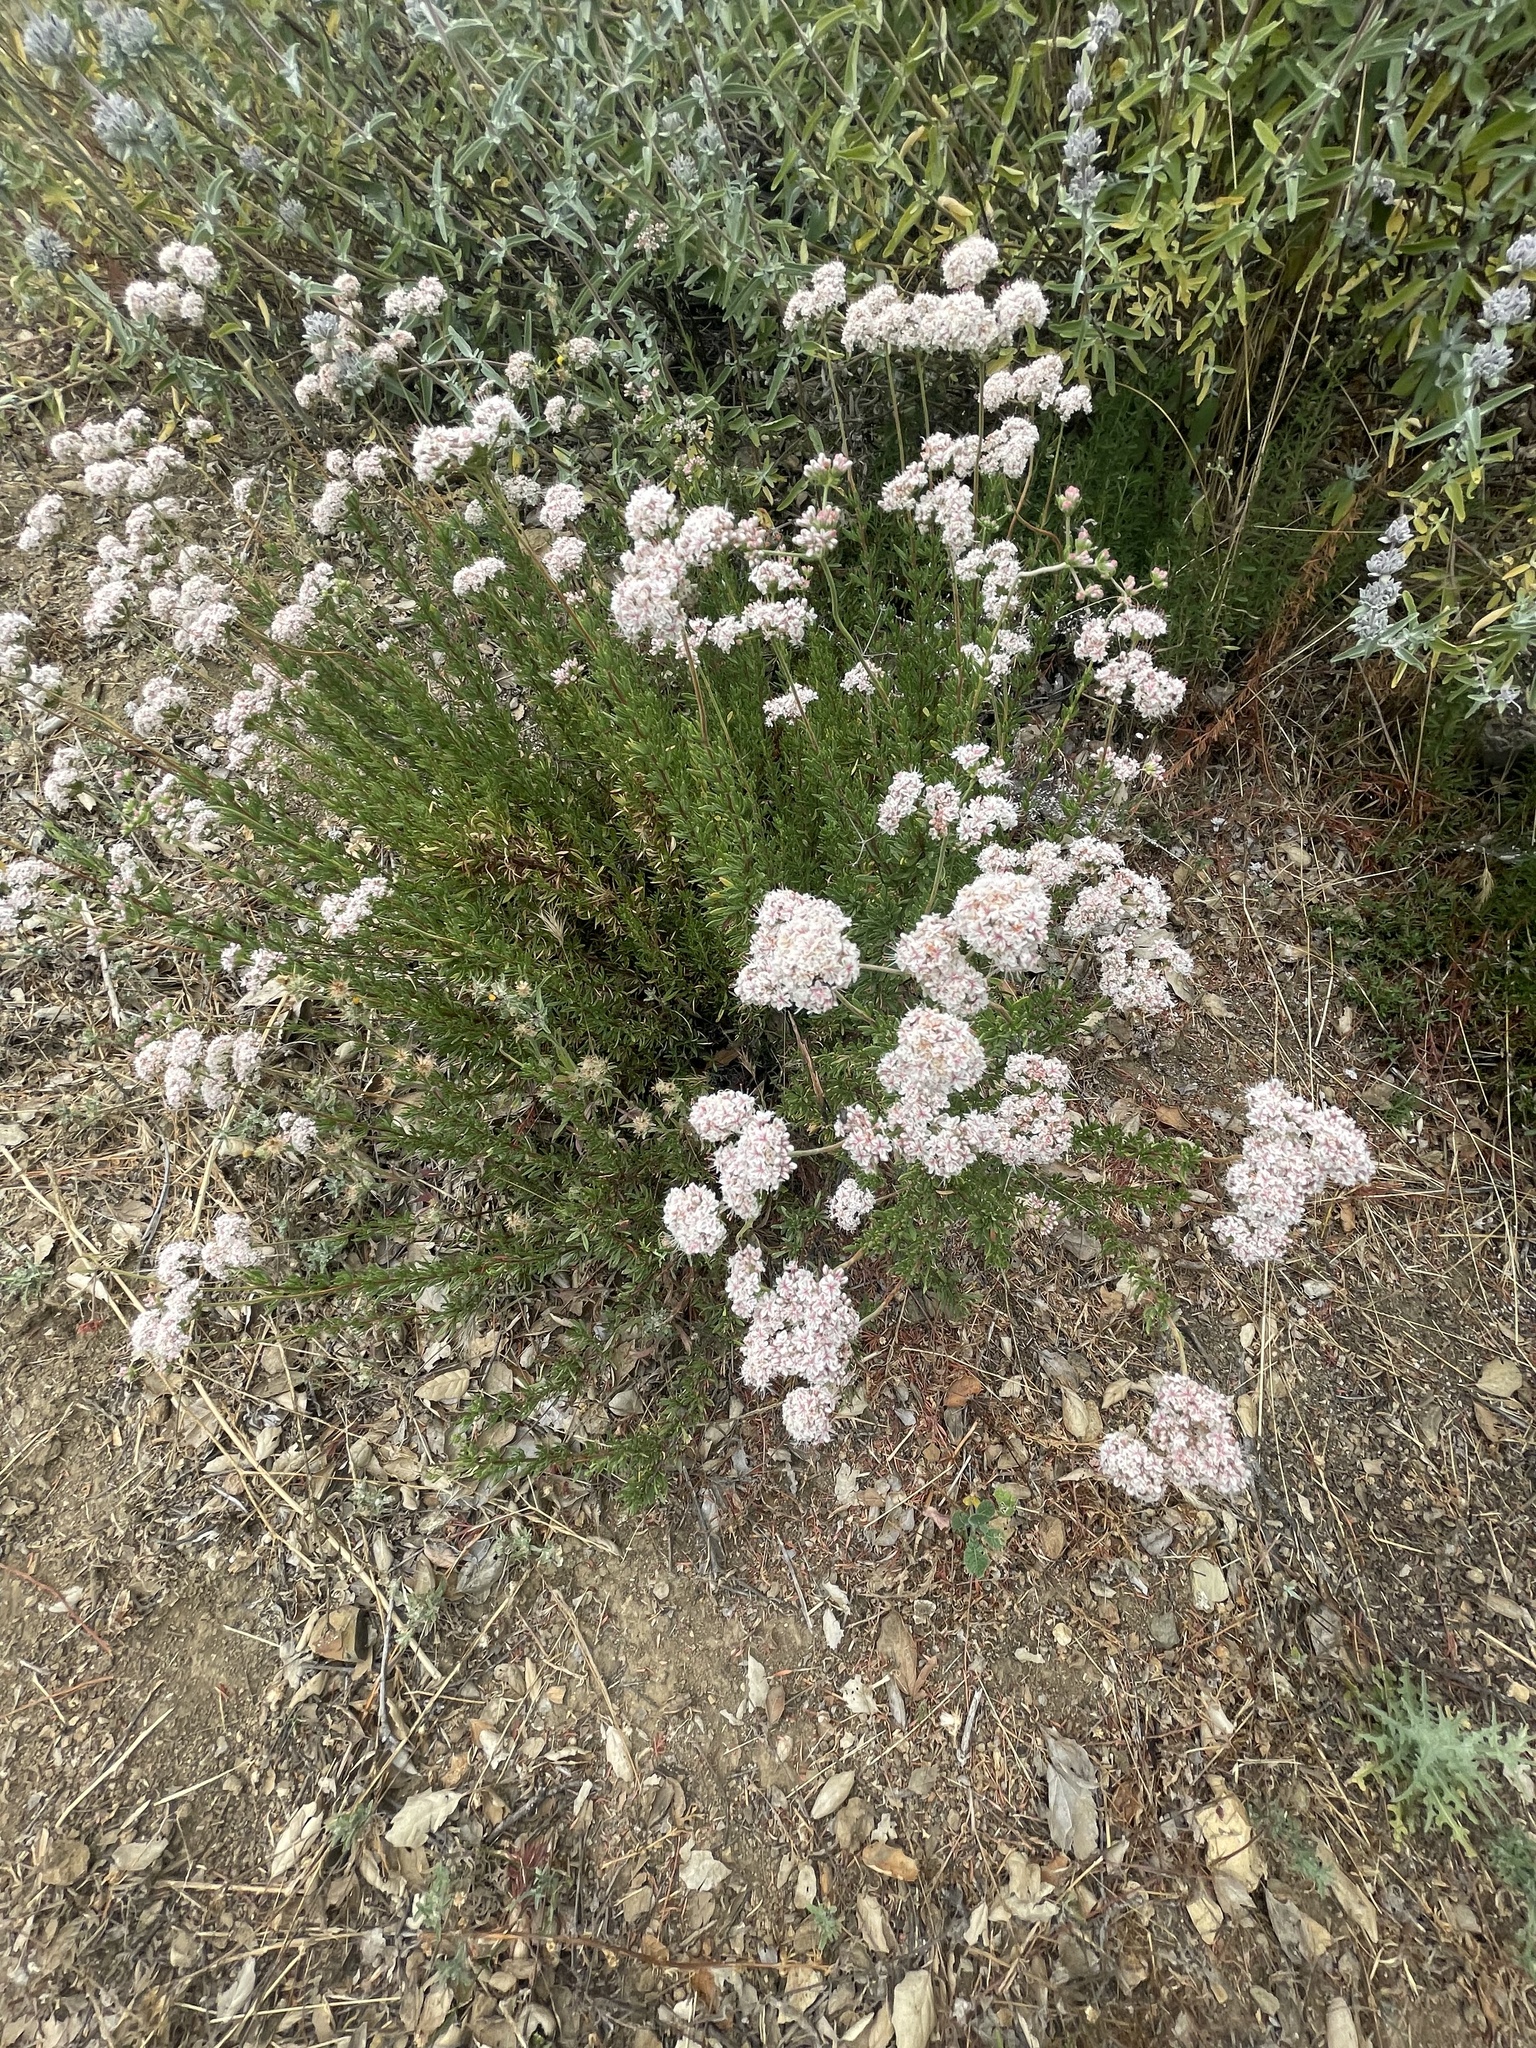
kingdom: Plantae
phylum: Tracheophyta
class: Magnoliopsida
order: Caryophyllales
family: Polygonaceae
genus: Eriogonum
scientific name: Eriogonum fasciculatum
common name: California wild buckwheat
